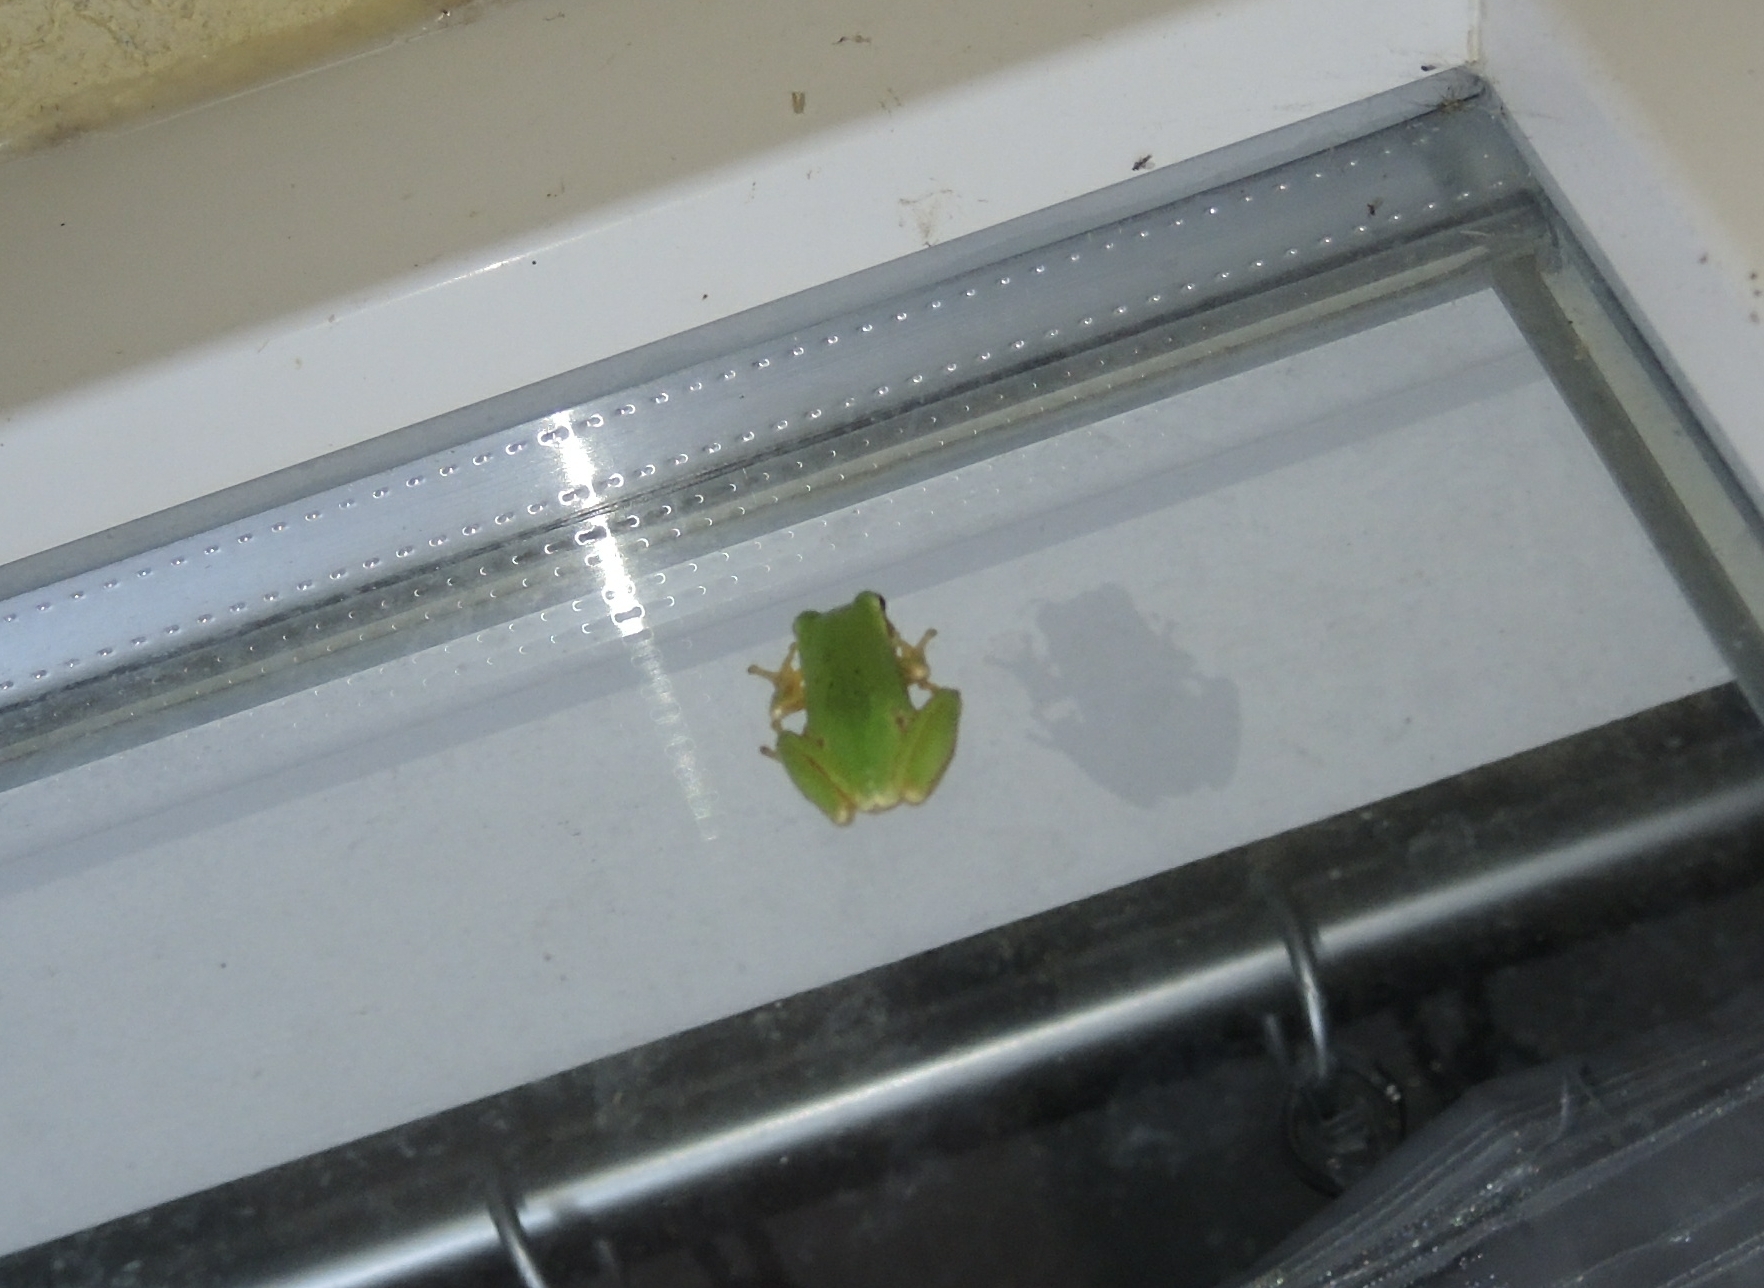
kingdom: Animalia
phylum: Chordata
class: Amphibia
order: Anura
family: Hylidae
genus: Hyla
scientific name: Hyla orientalis
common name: Caucasian treefrog
